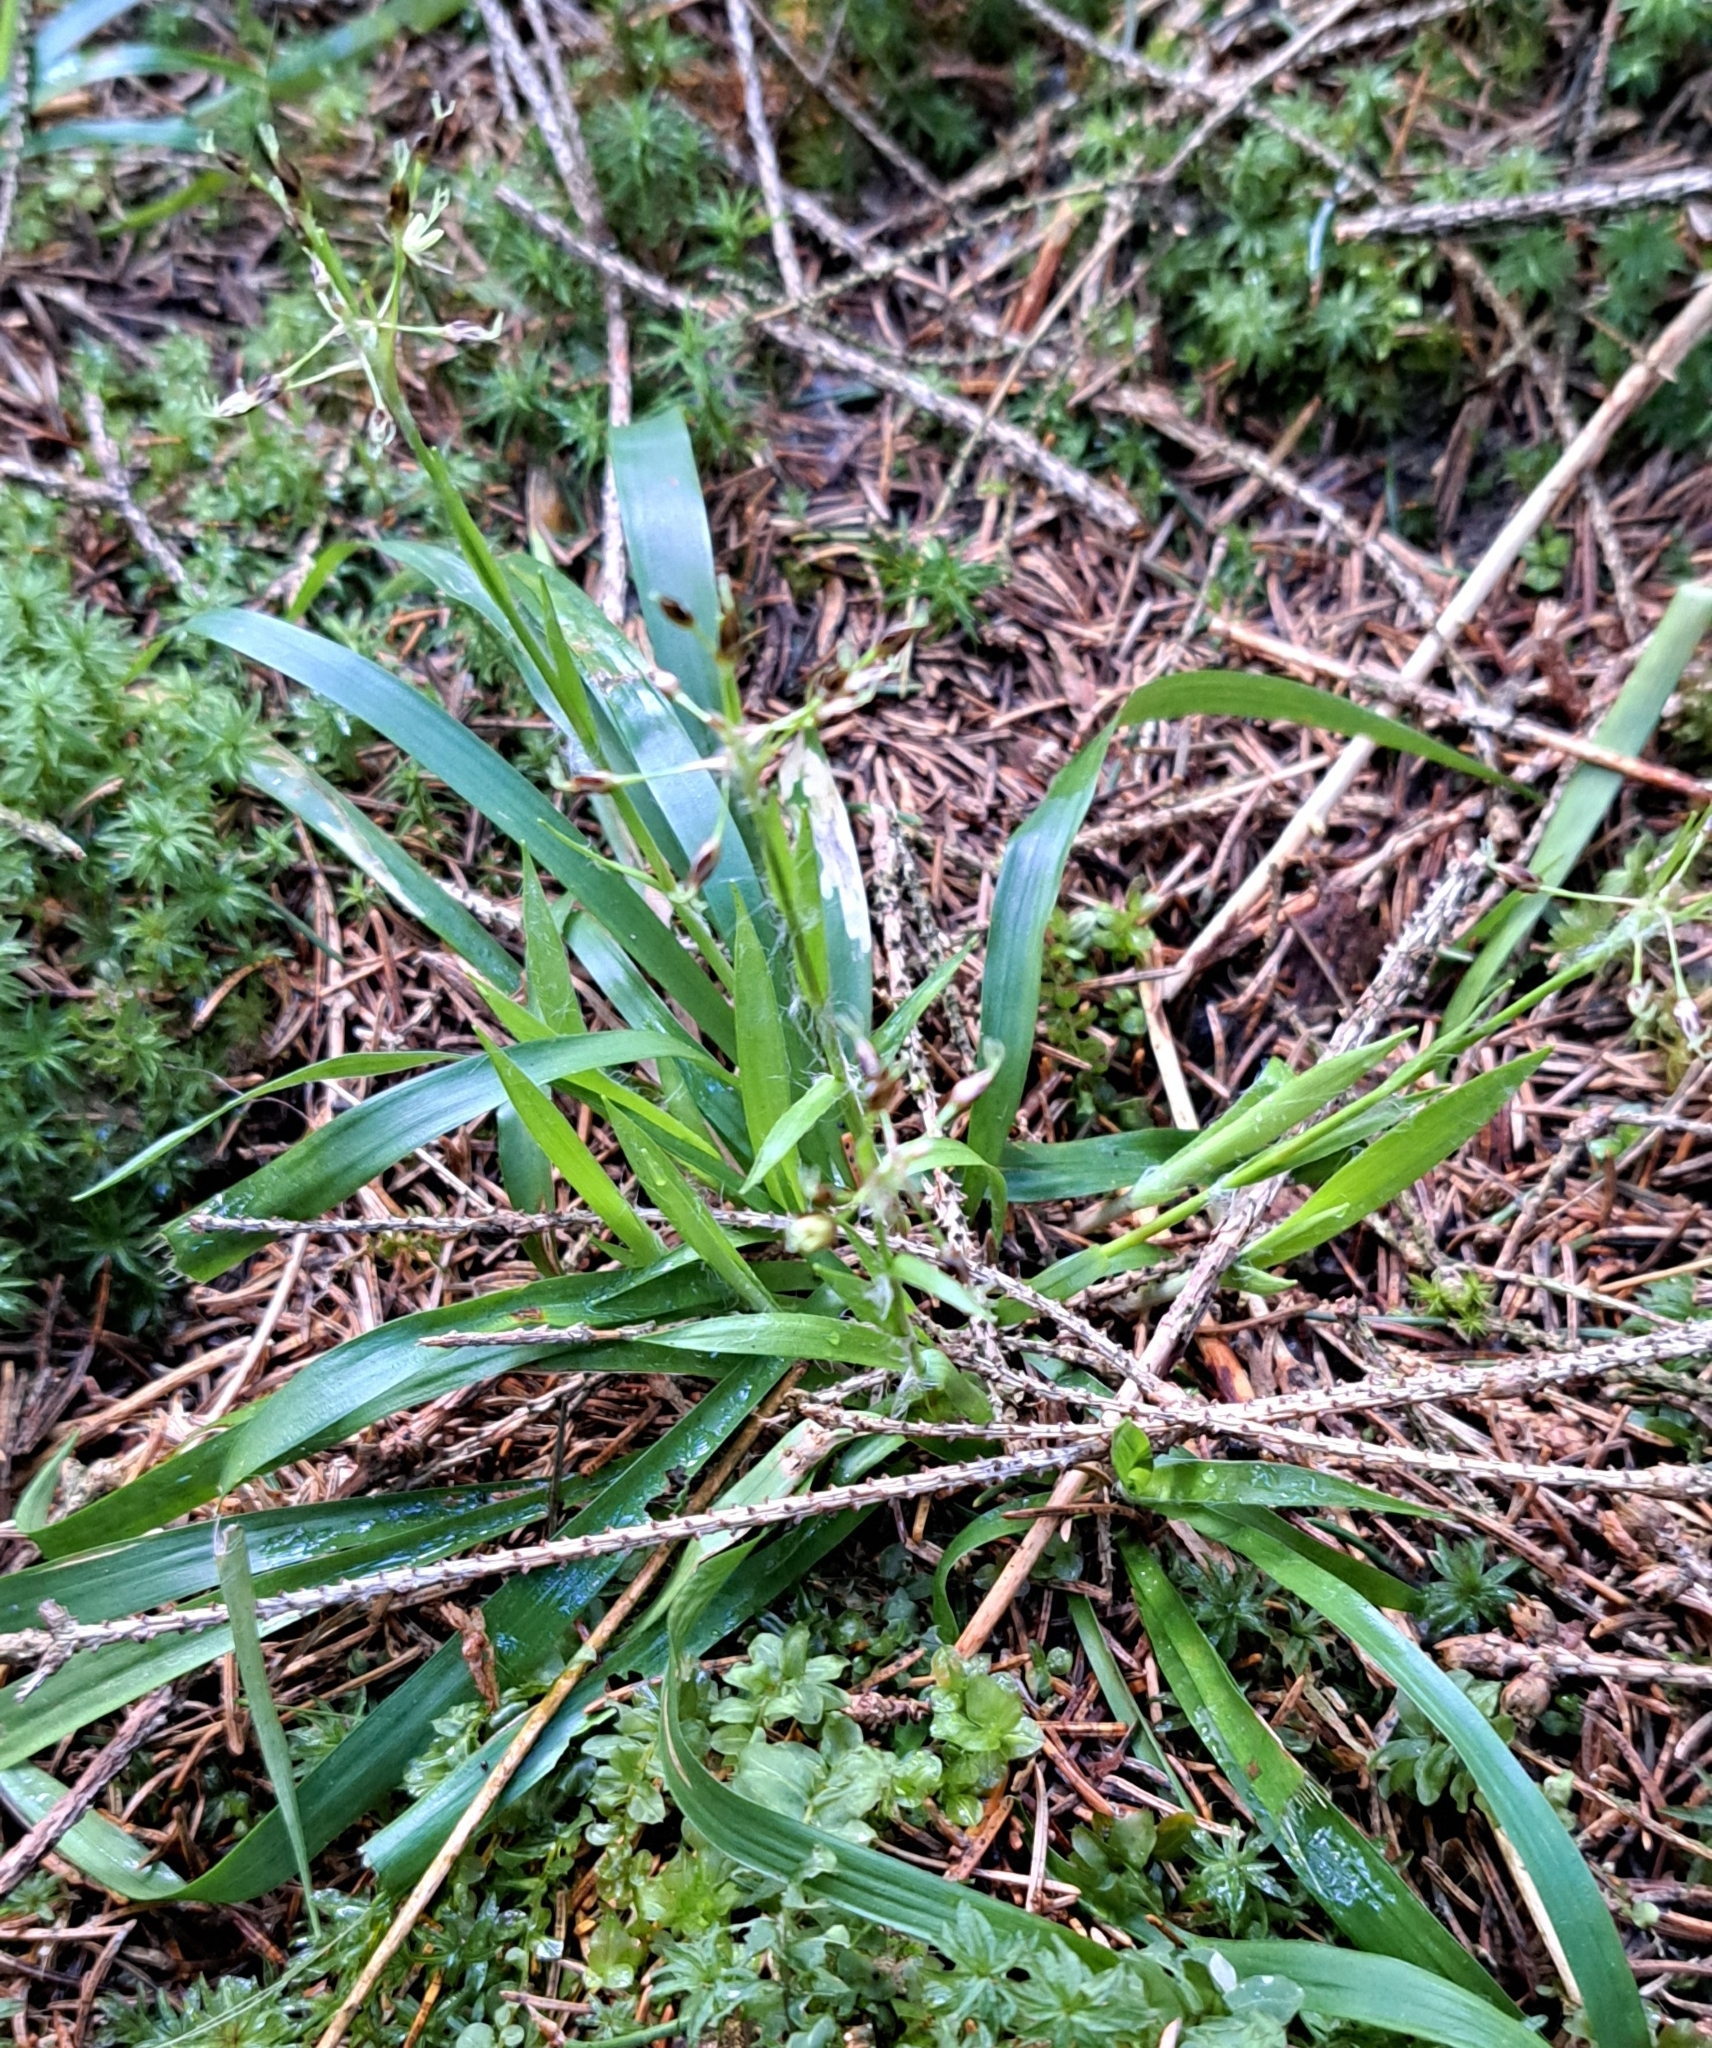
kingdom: Plantae
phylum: Tracheophyta
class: Liliopsida
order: Poales
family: Juncaceae
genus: Luzula
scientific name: Luzula pilosa
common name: Hairy wood-rush
